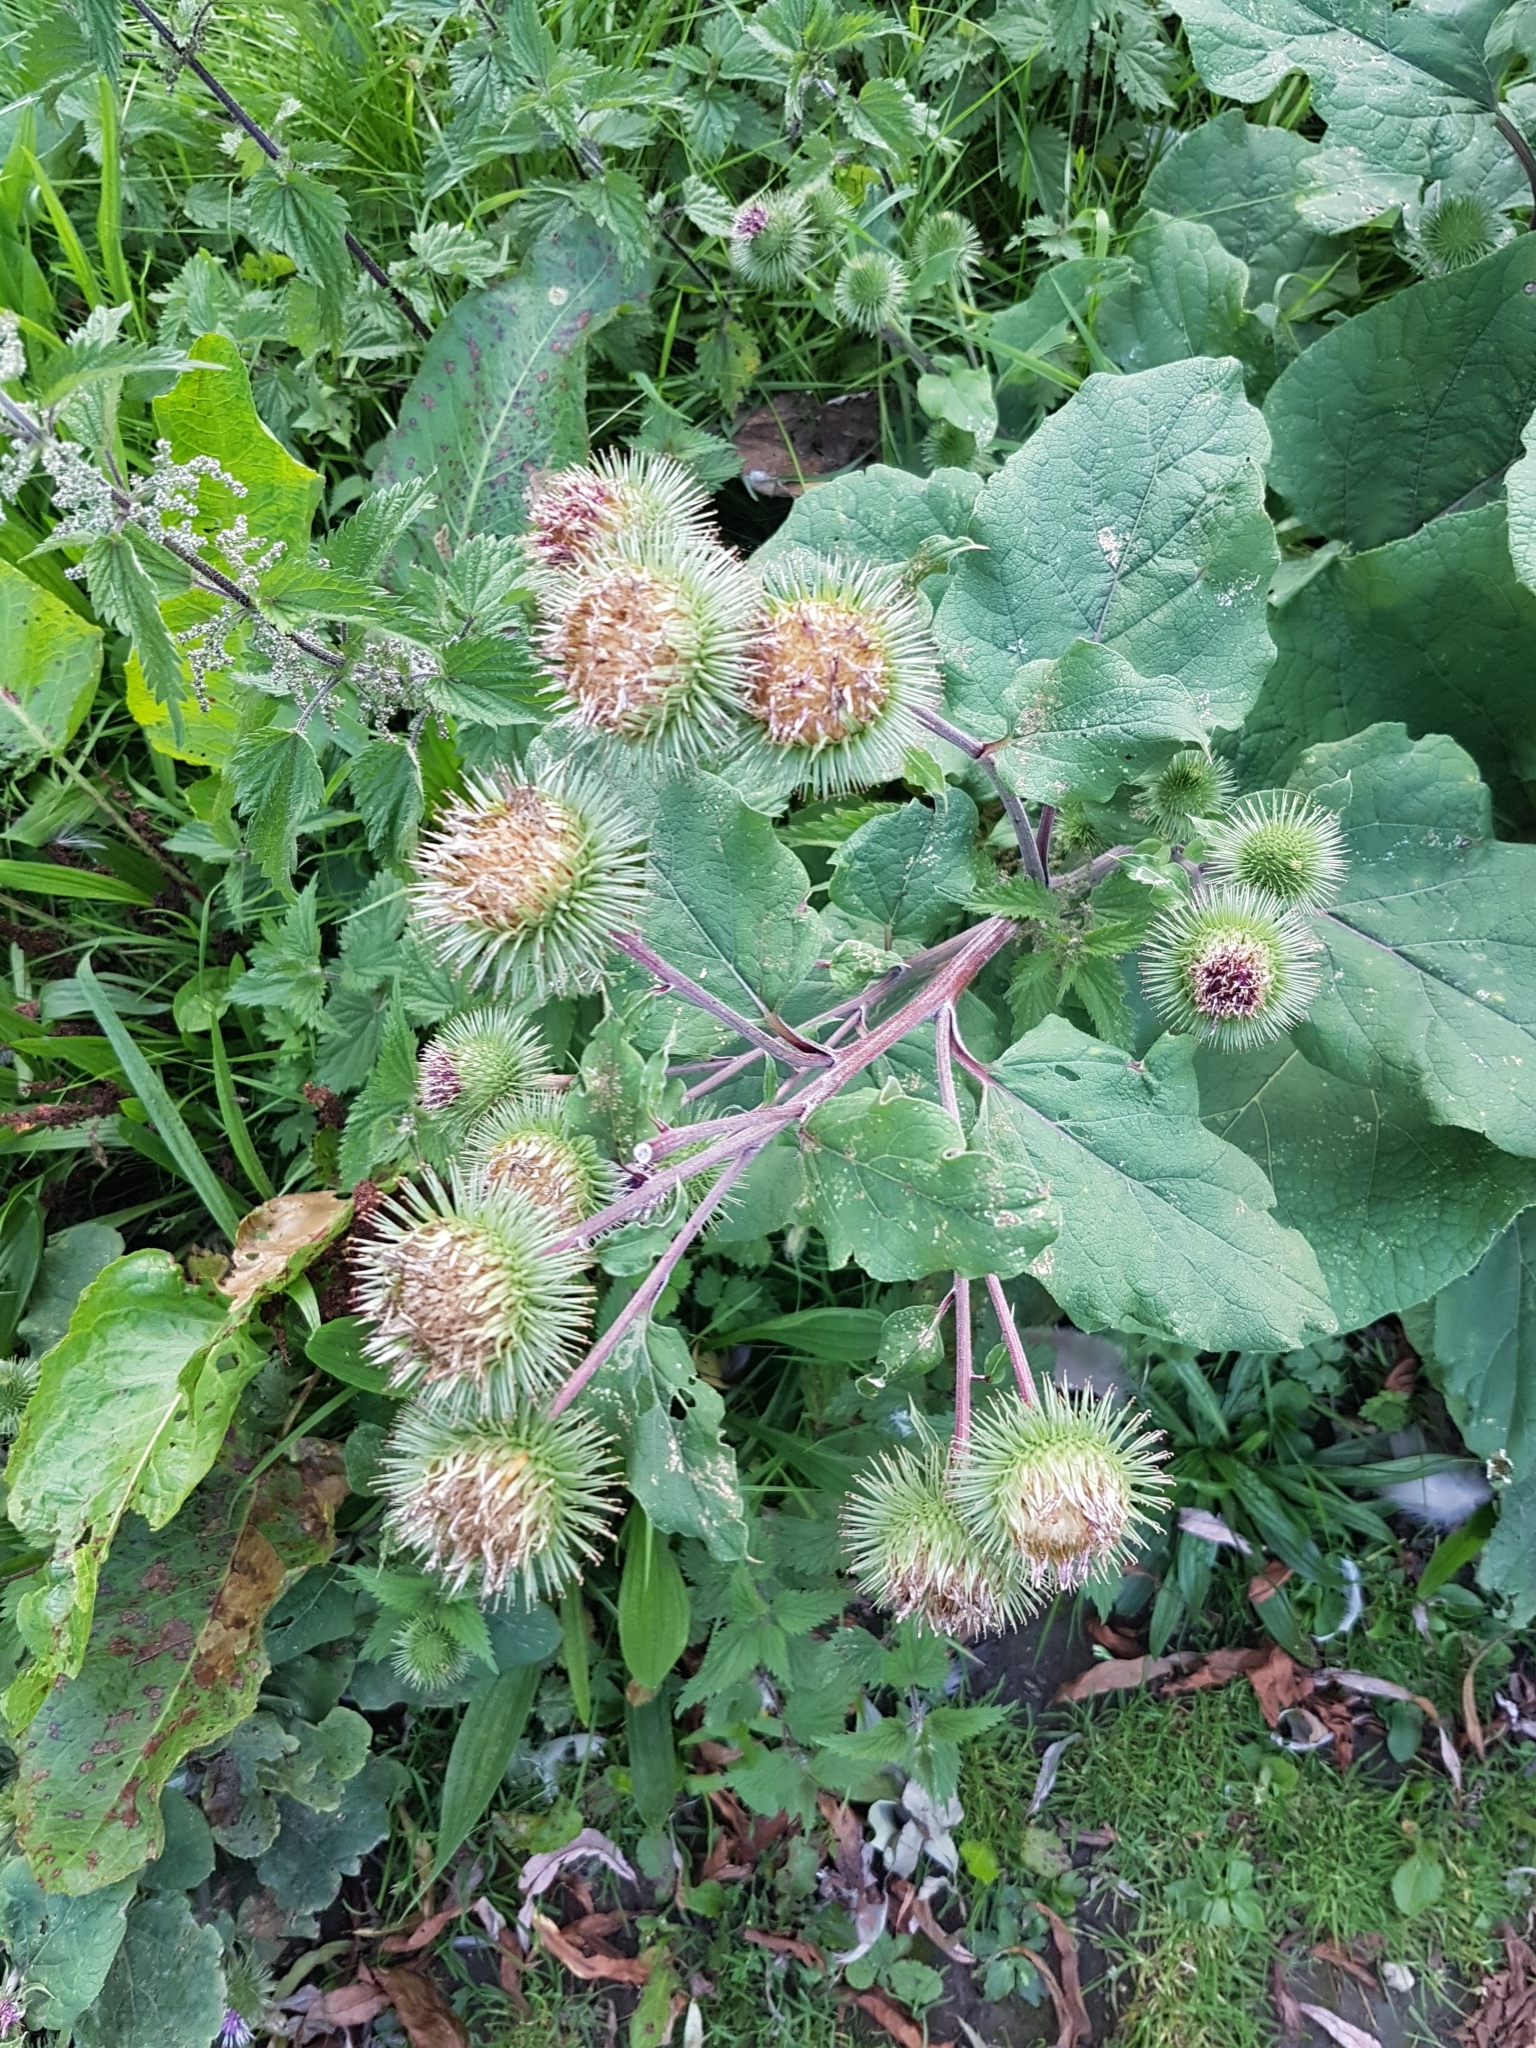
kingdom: Plantae
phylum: Tracheophyta
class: Magnoliopsida
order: Asterales
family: Asteraceae
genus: Arctium
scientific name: Arctium lappa
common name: Greater burdock
